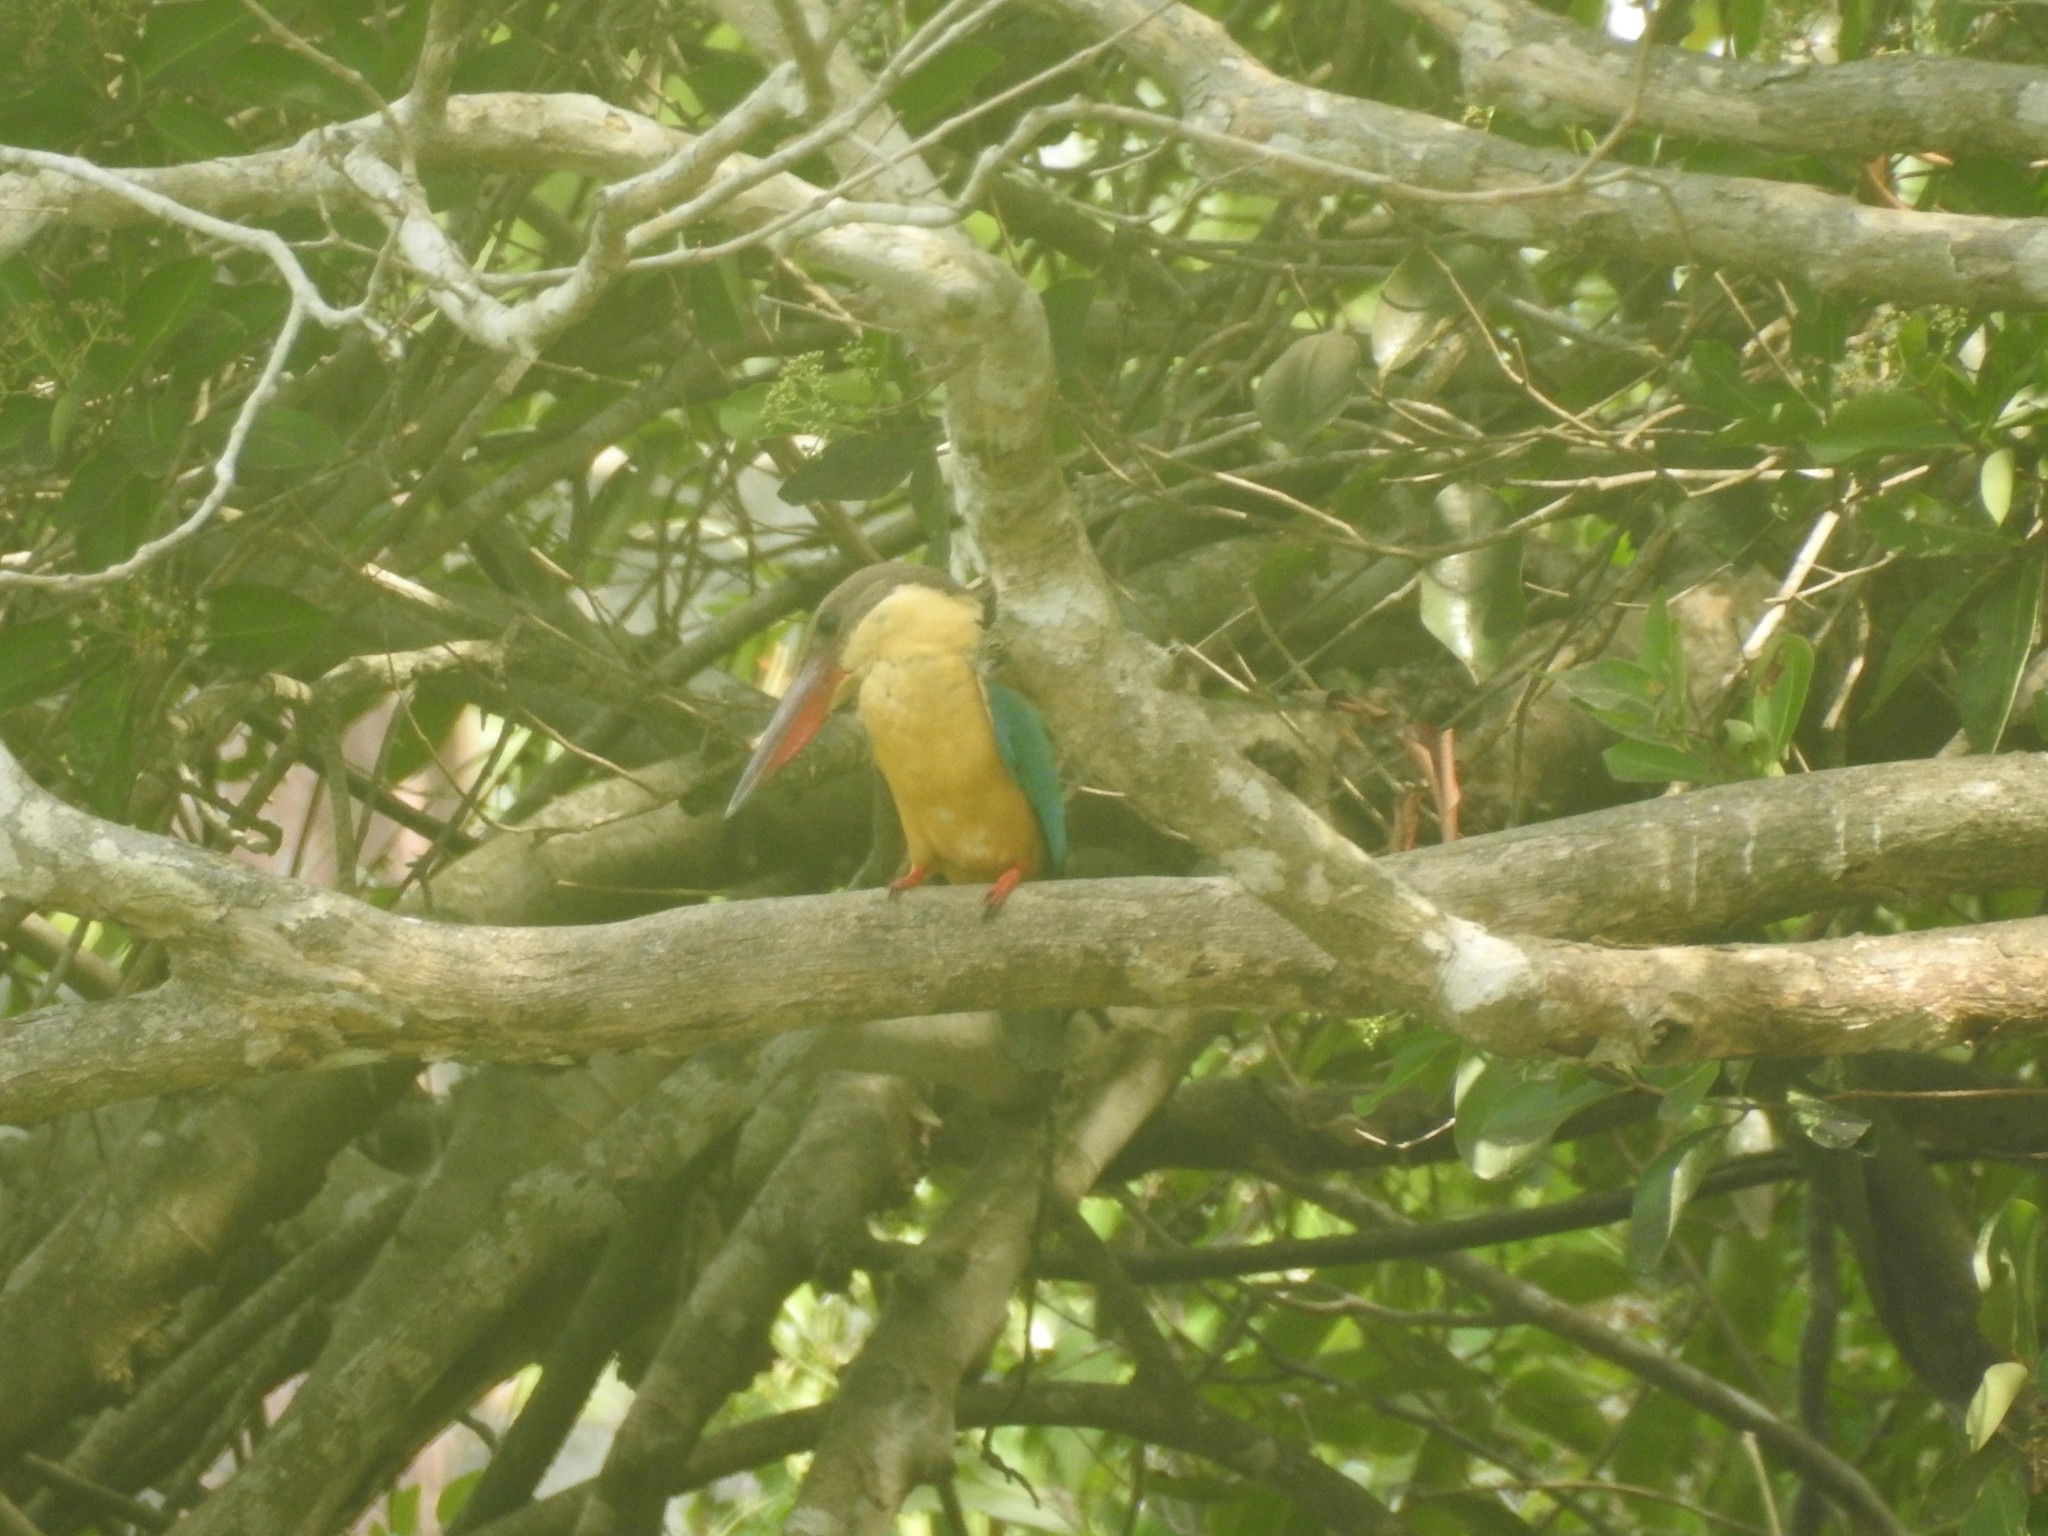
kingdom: Animalia
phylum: Chordata
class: Aves
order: Coraciiformes
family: Alcedinidae
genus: Pelargopsis
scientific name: Pelargopsis capensis
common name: Stork-billed kingfisher
